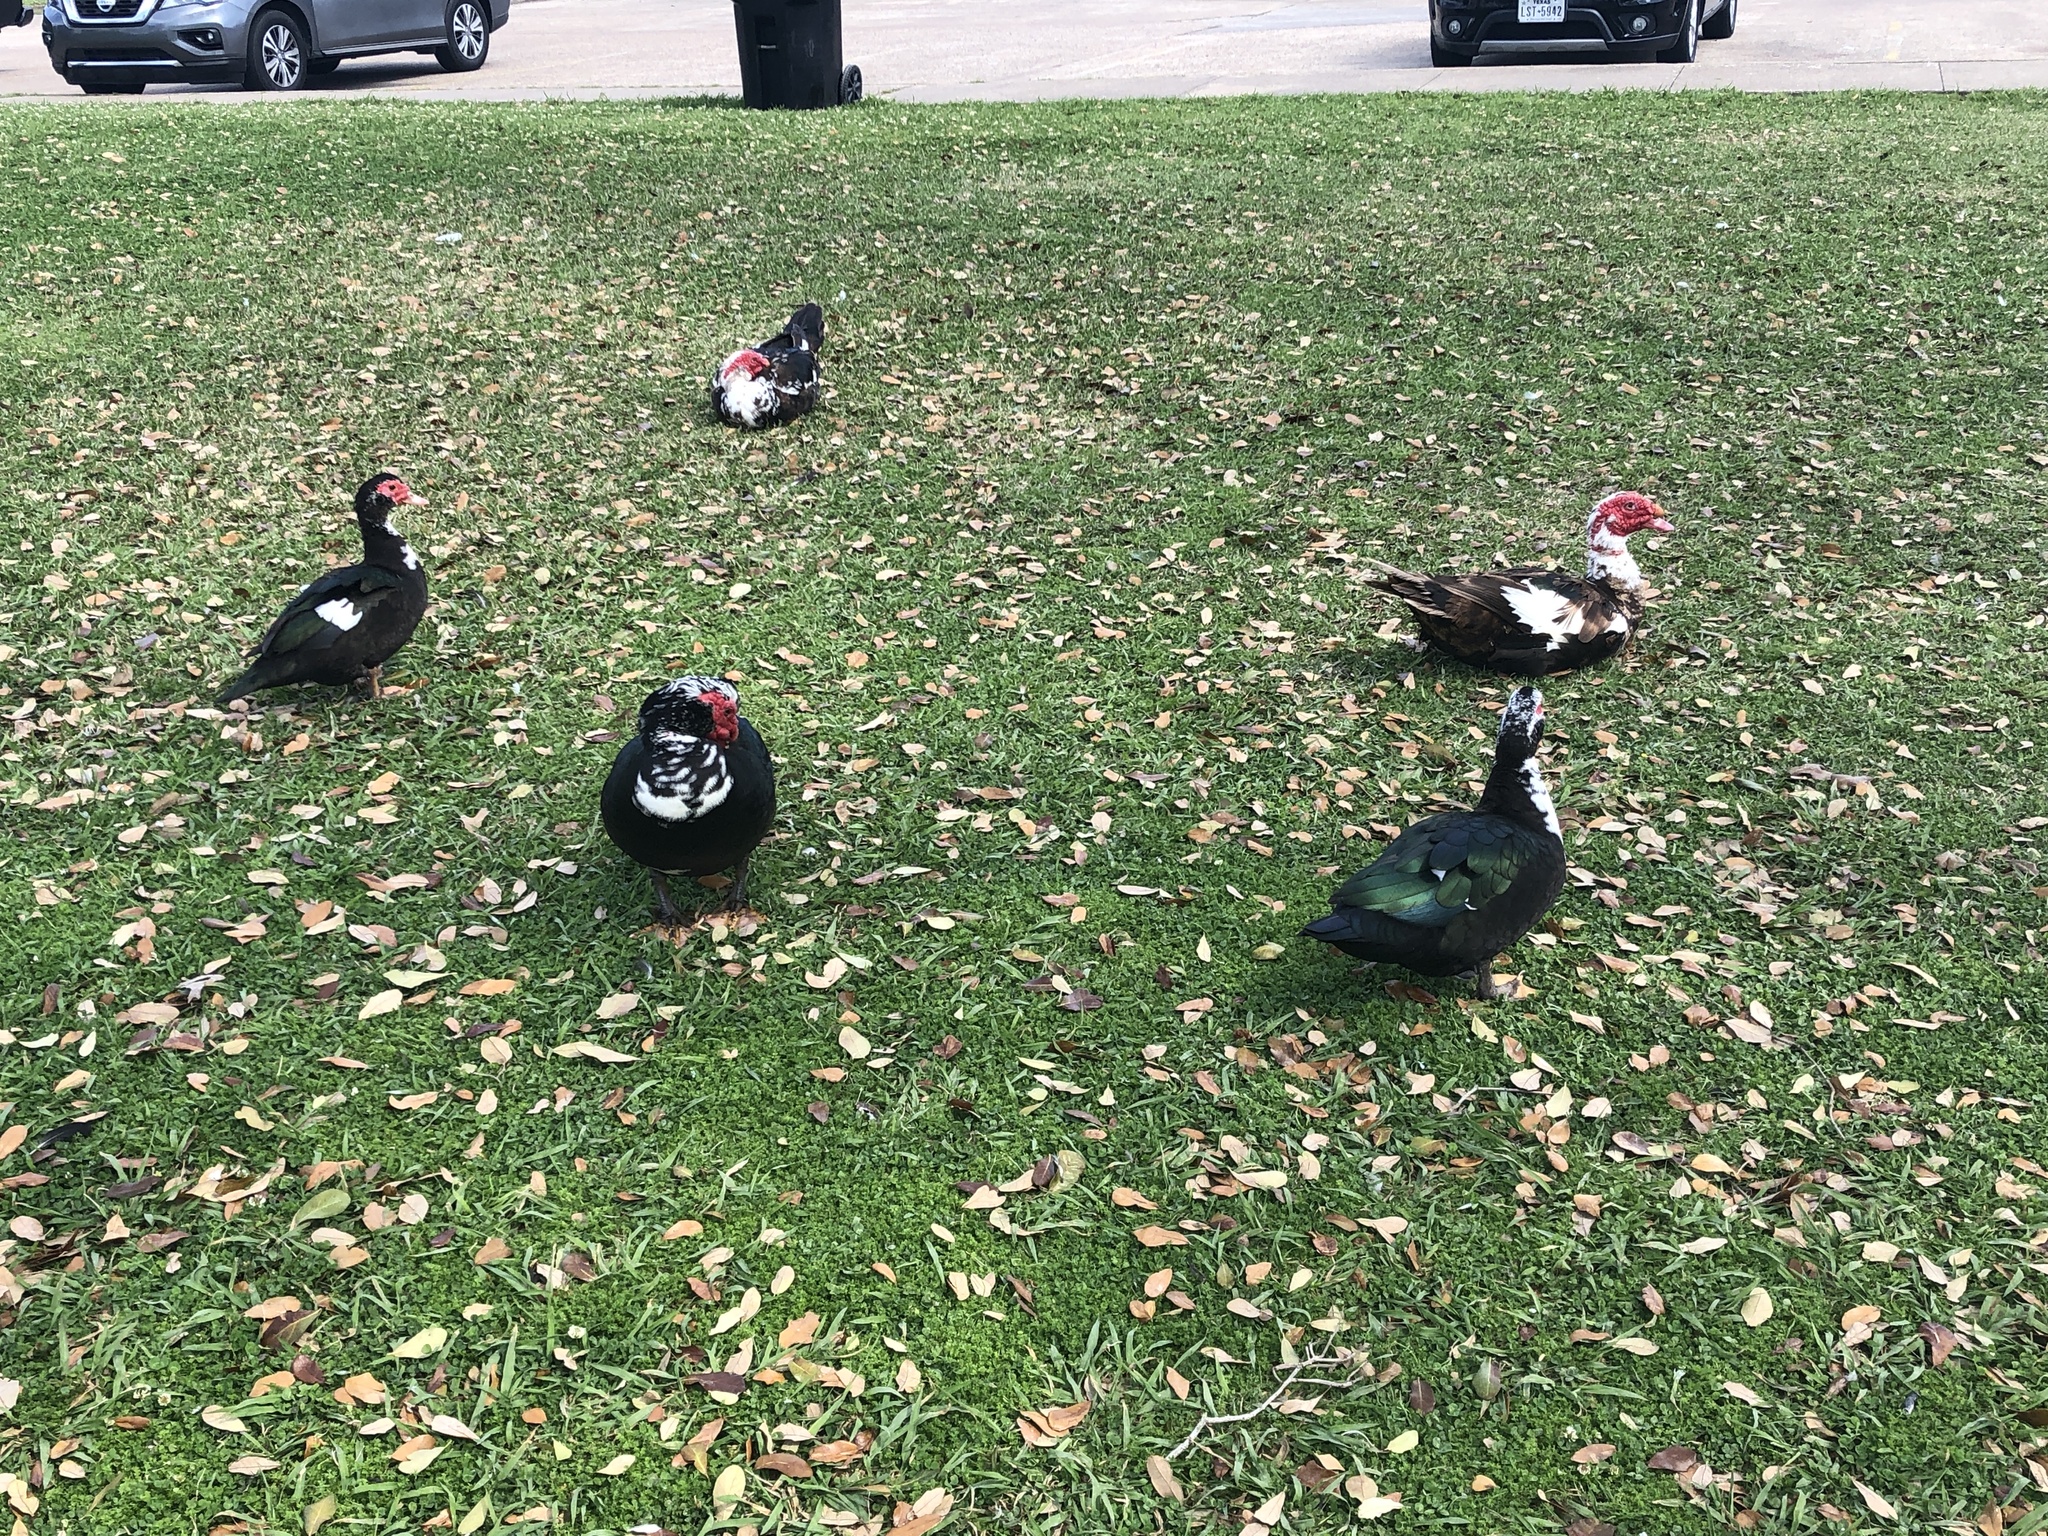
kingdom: Animalia
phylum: Chordata
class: Aves
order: Anseriformes
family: Anatidae
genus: Cairina
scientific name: Cairina moschata
